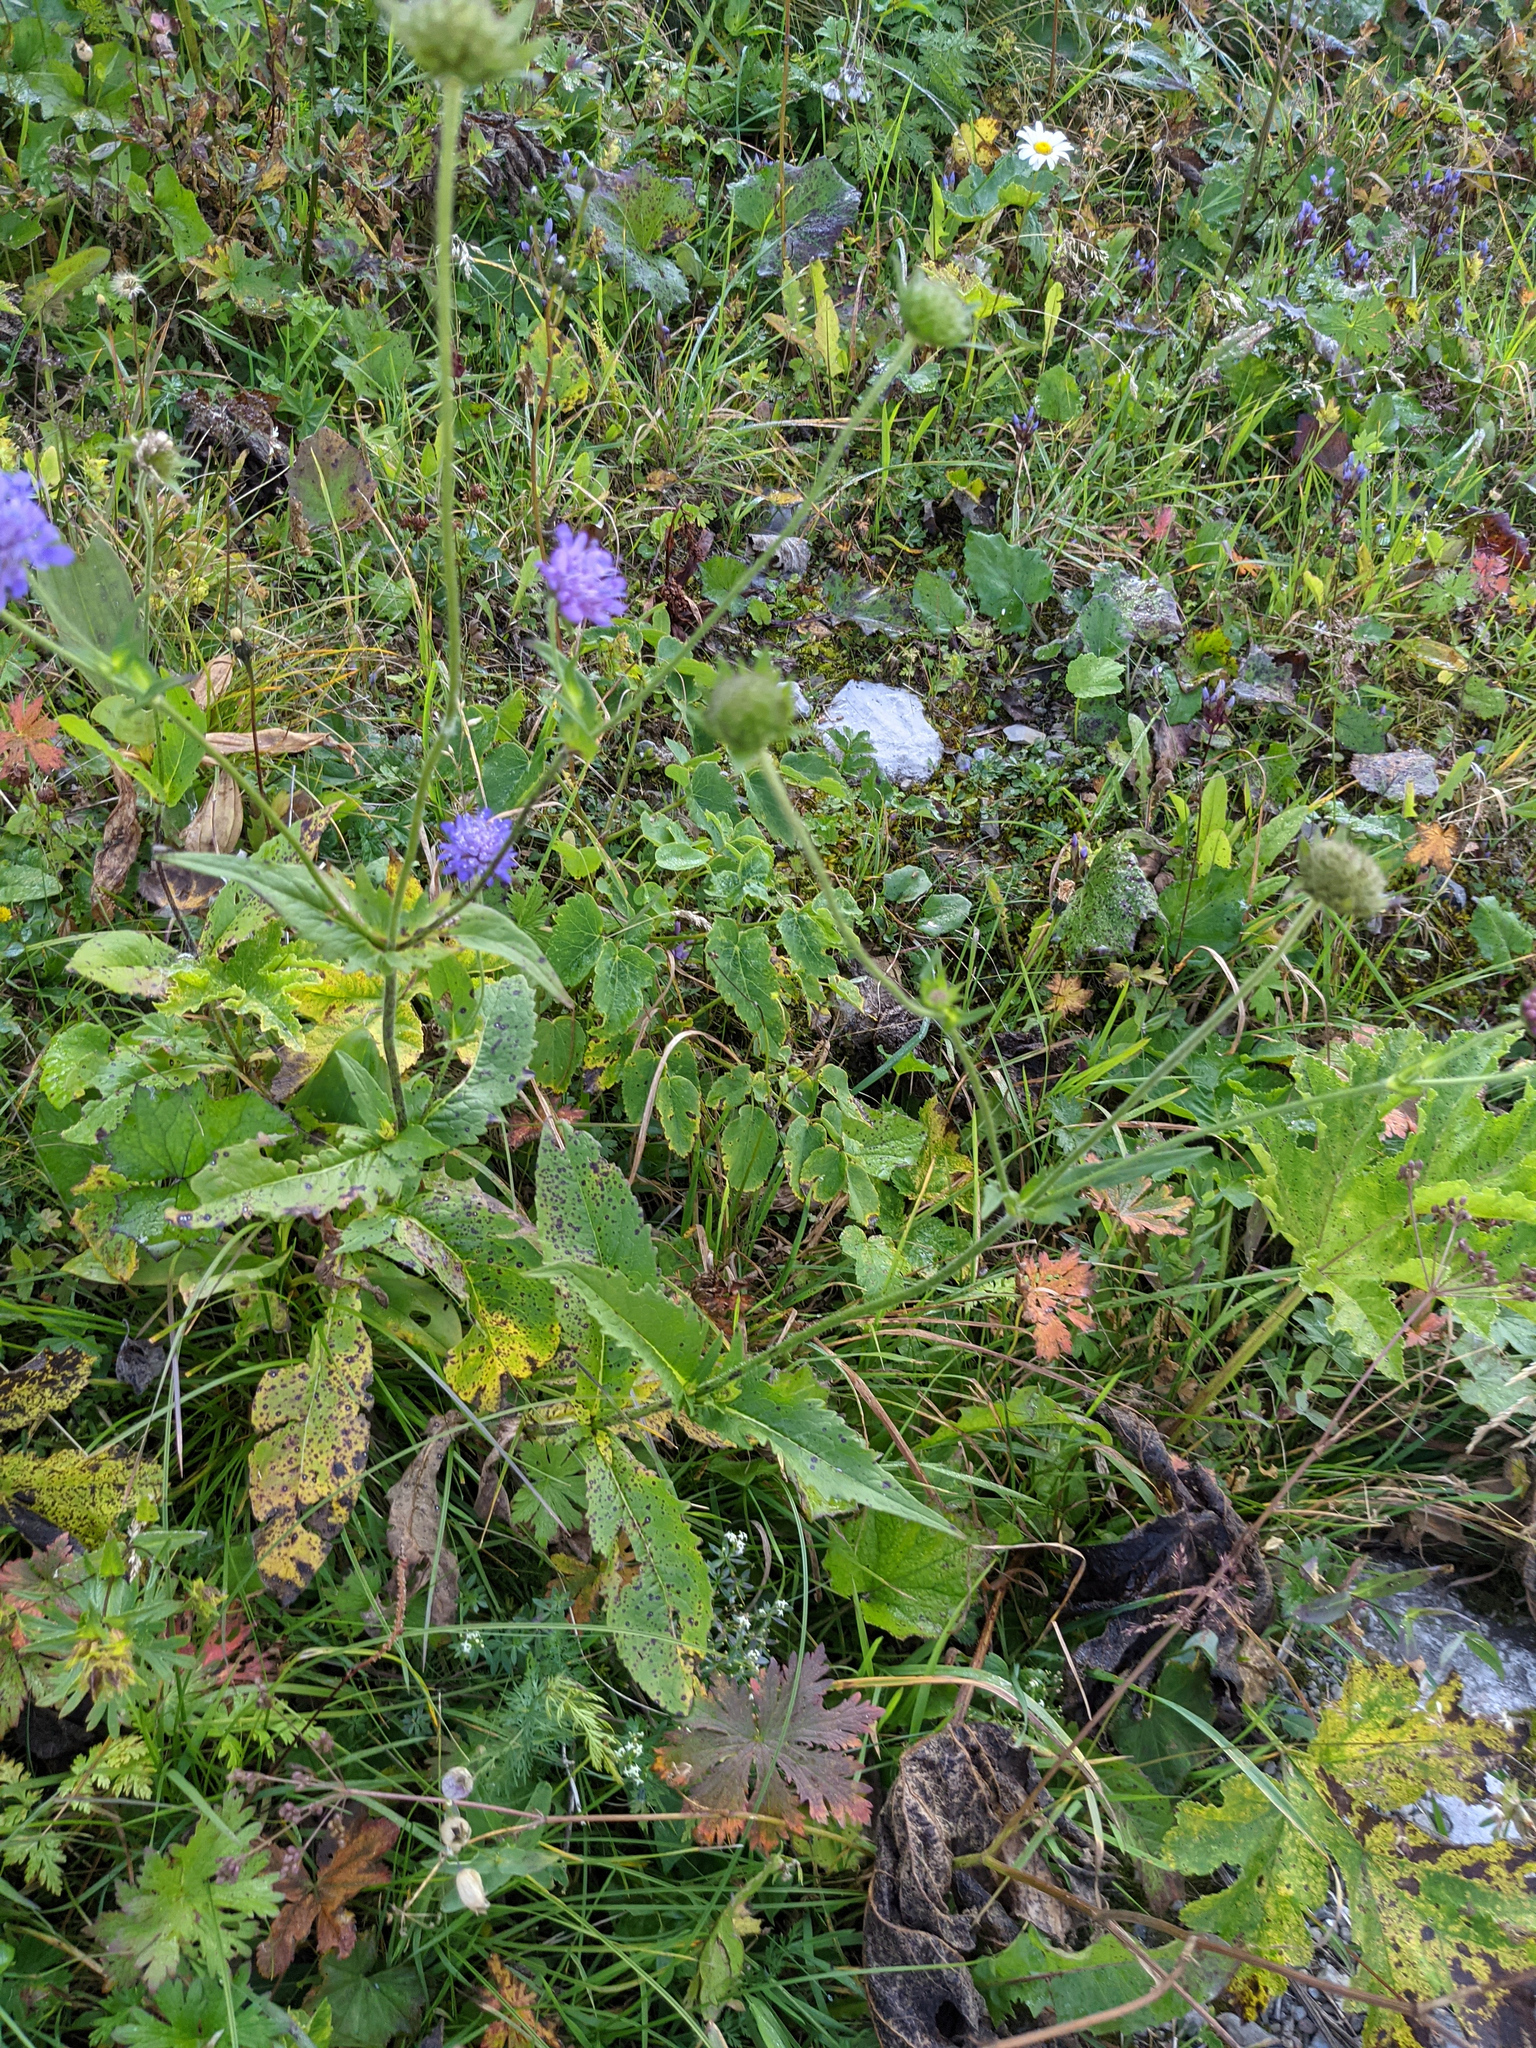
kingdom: Plantae
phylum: Tracheophyta
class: Magnoliopsida
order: Dipsacales
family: Caprifoliaceae
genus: Knautia
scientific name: Knautia dipsacifolia
